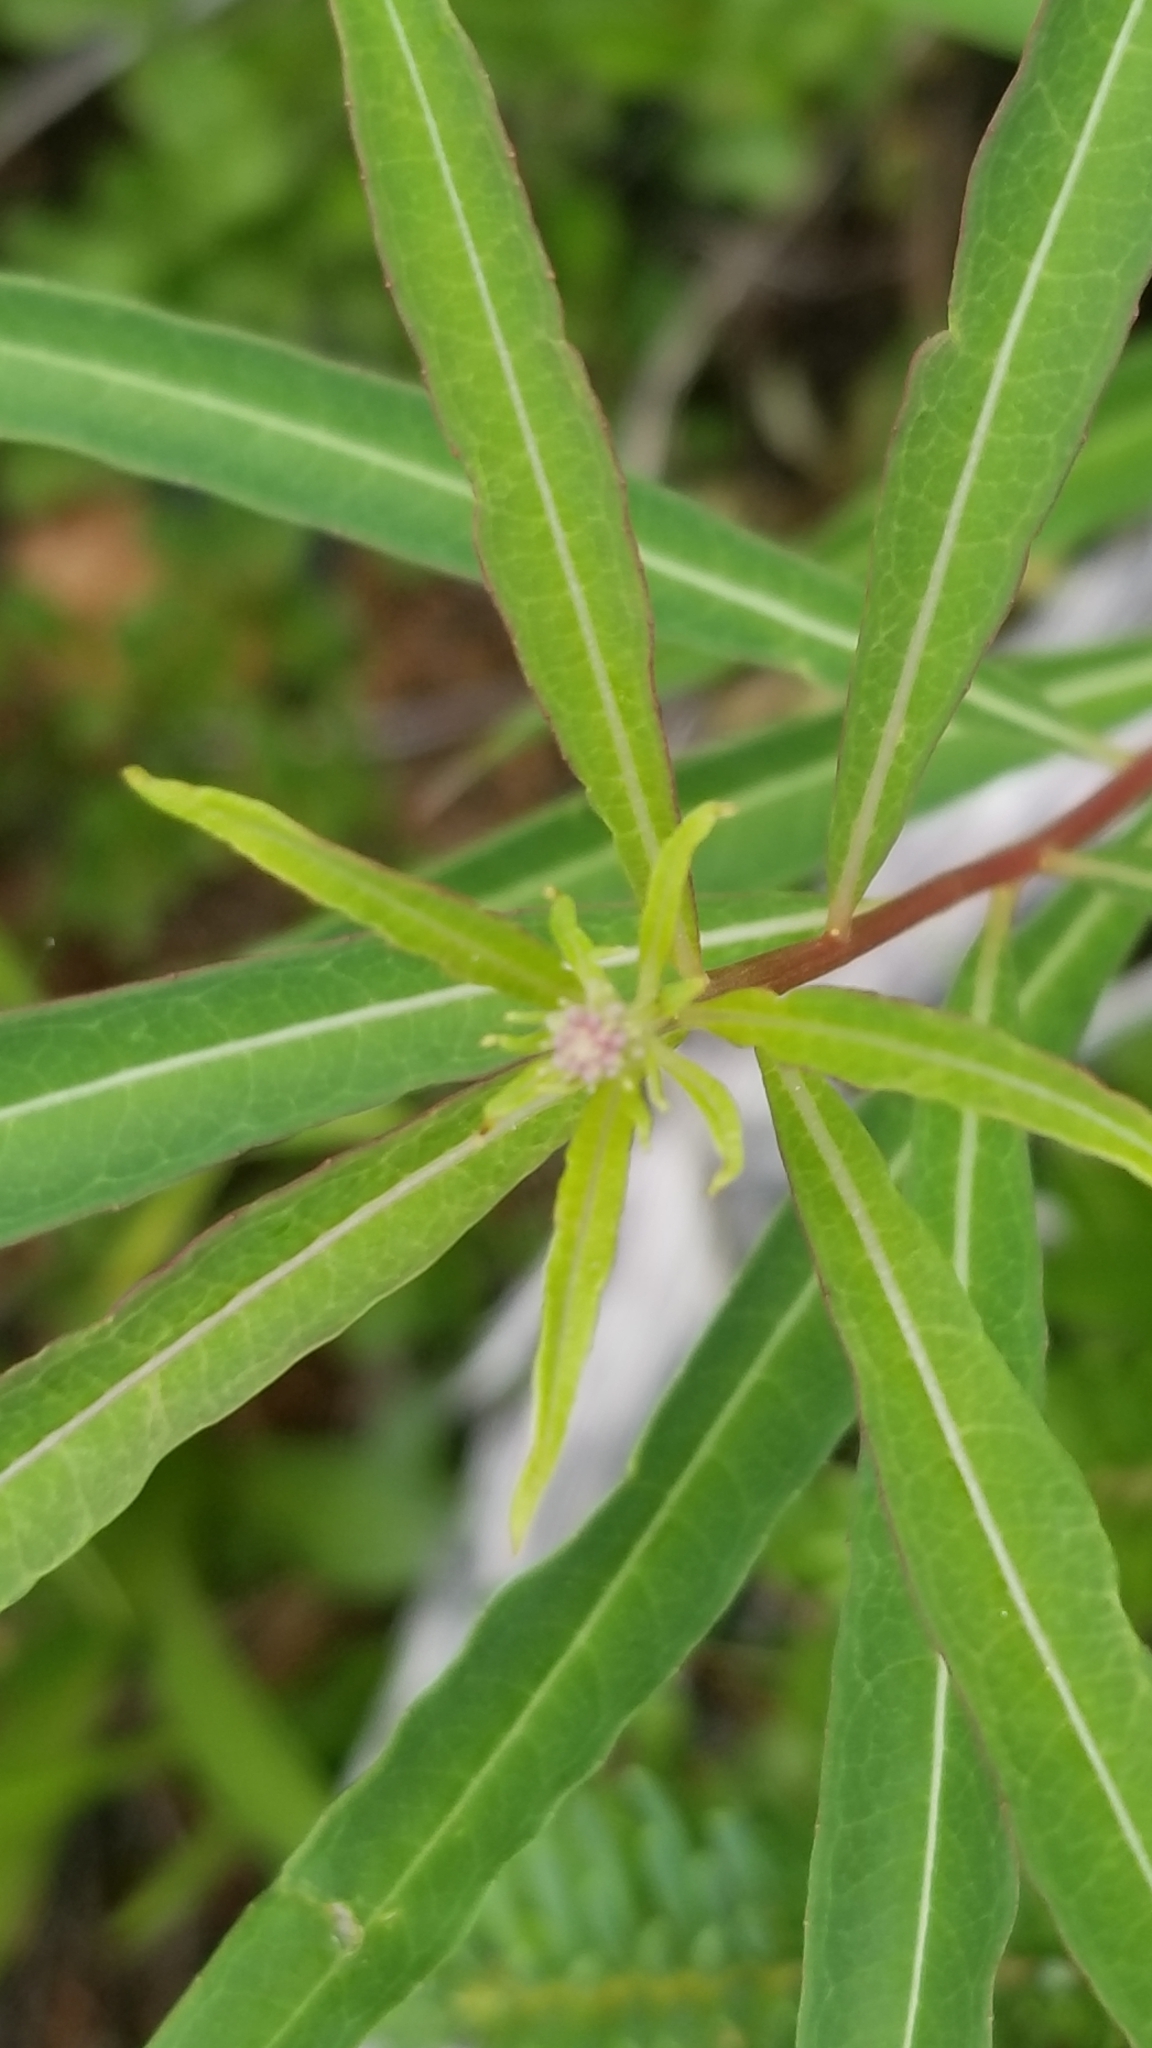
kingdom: Plantae
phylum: Tracheophyta
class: Magnoliopsida
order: Myrtales
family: Onagraceae
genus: Chamaenerion
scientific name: Chamaenerion angustifolium
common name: Fireweed
